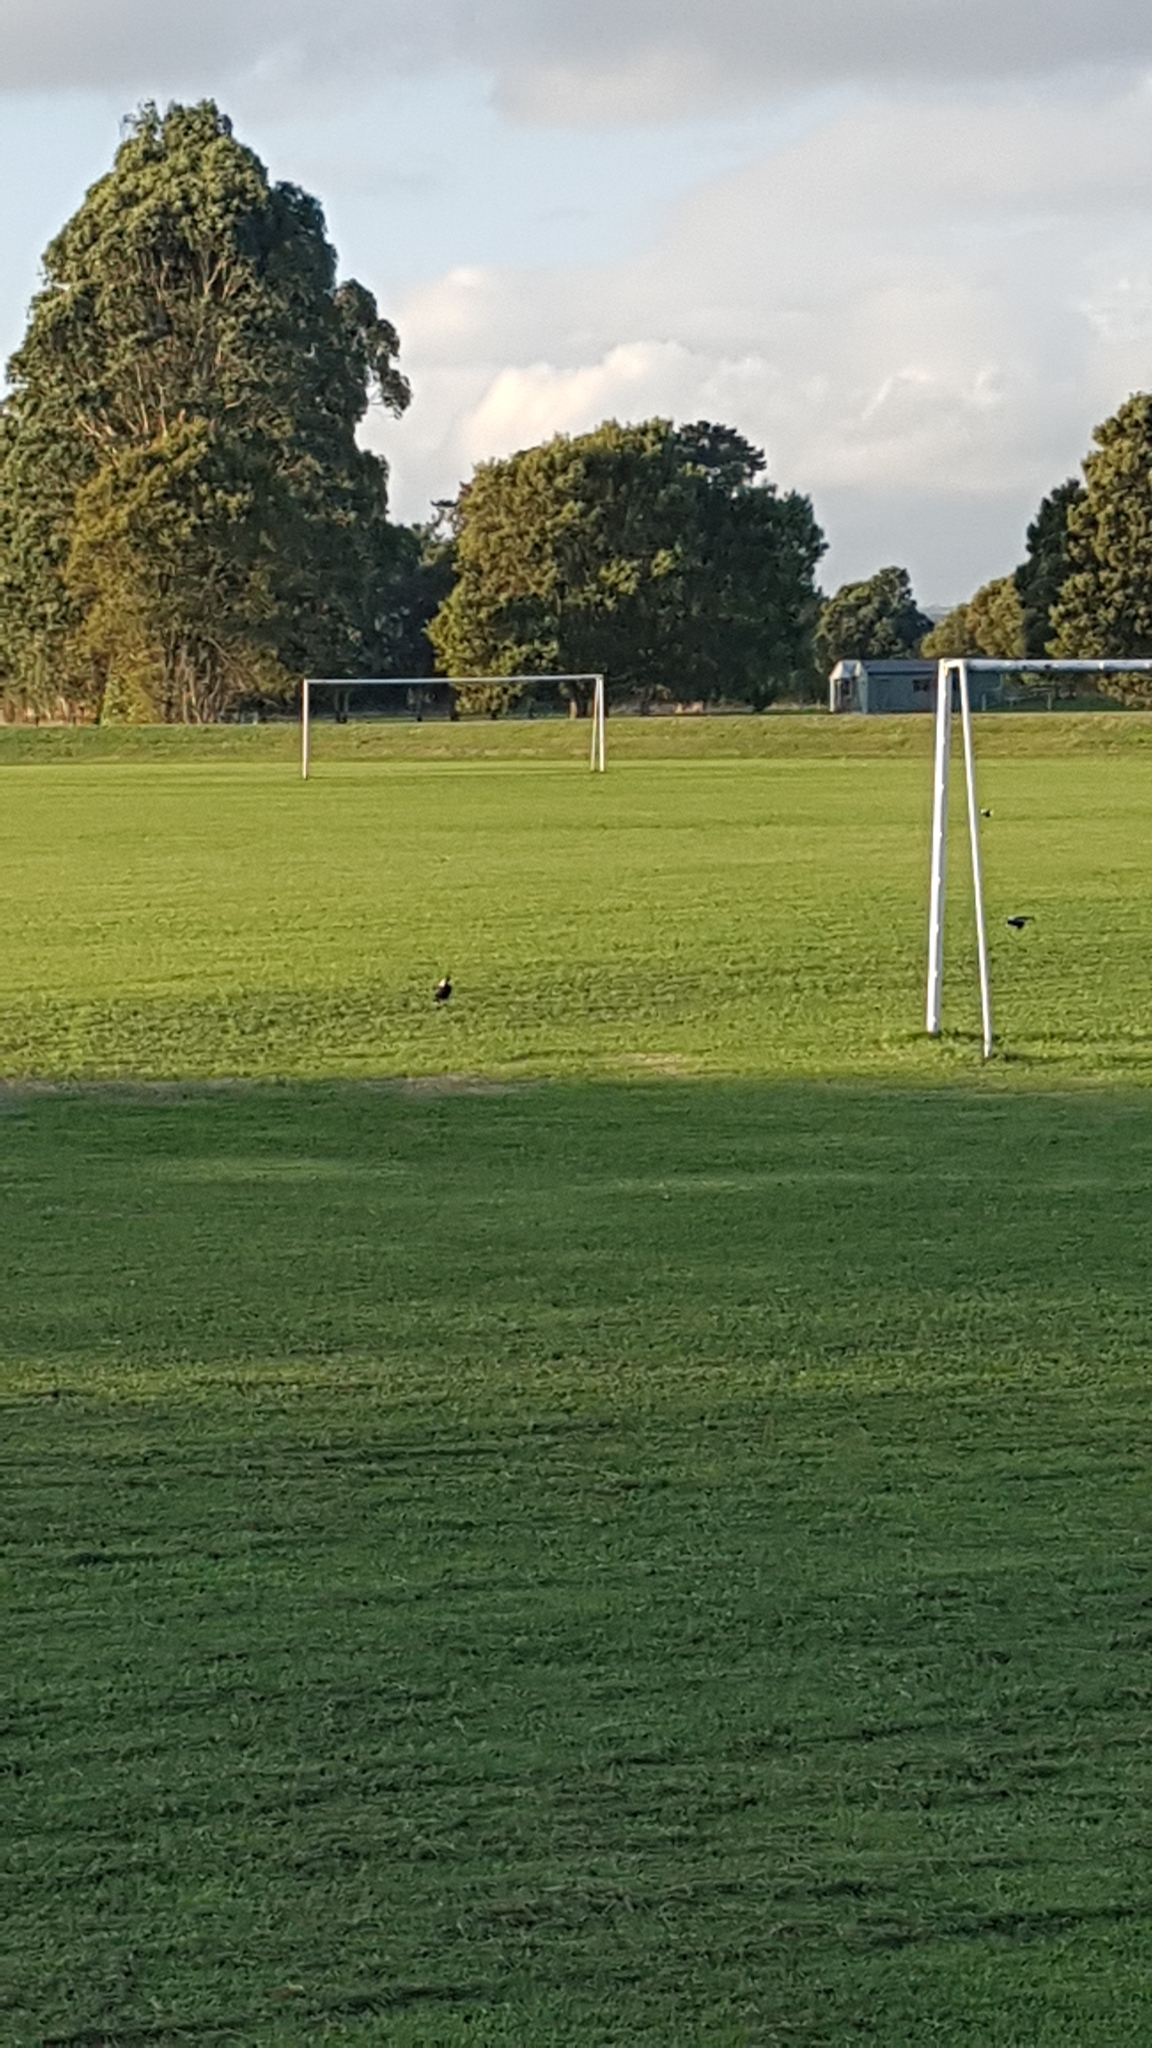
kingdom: Animalia
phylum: Chordata
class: Aves
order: Passeriformes
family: Cracticidae
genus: Gymnorhina
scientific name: Gymnorhina tibicen
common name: Australian magpie
